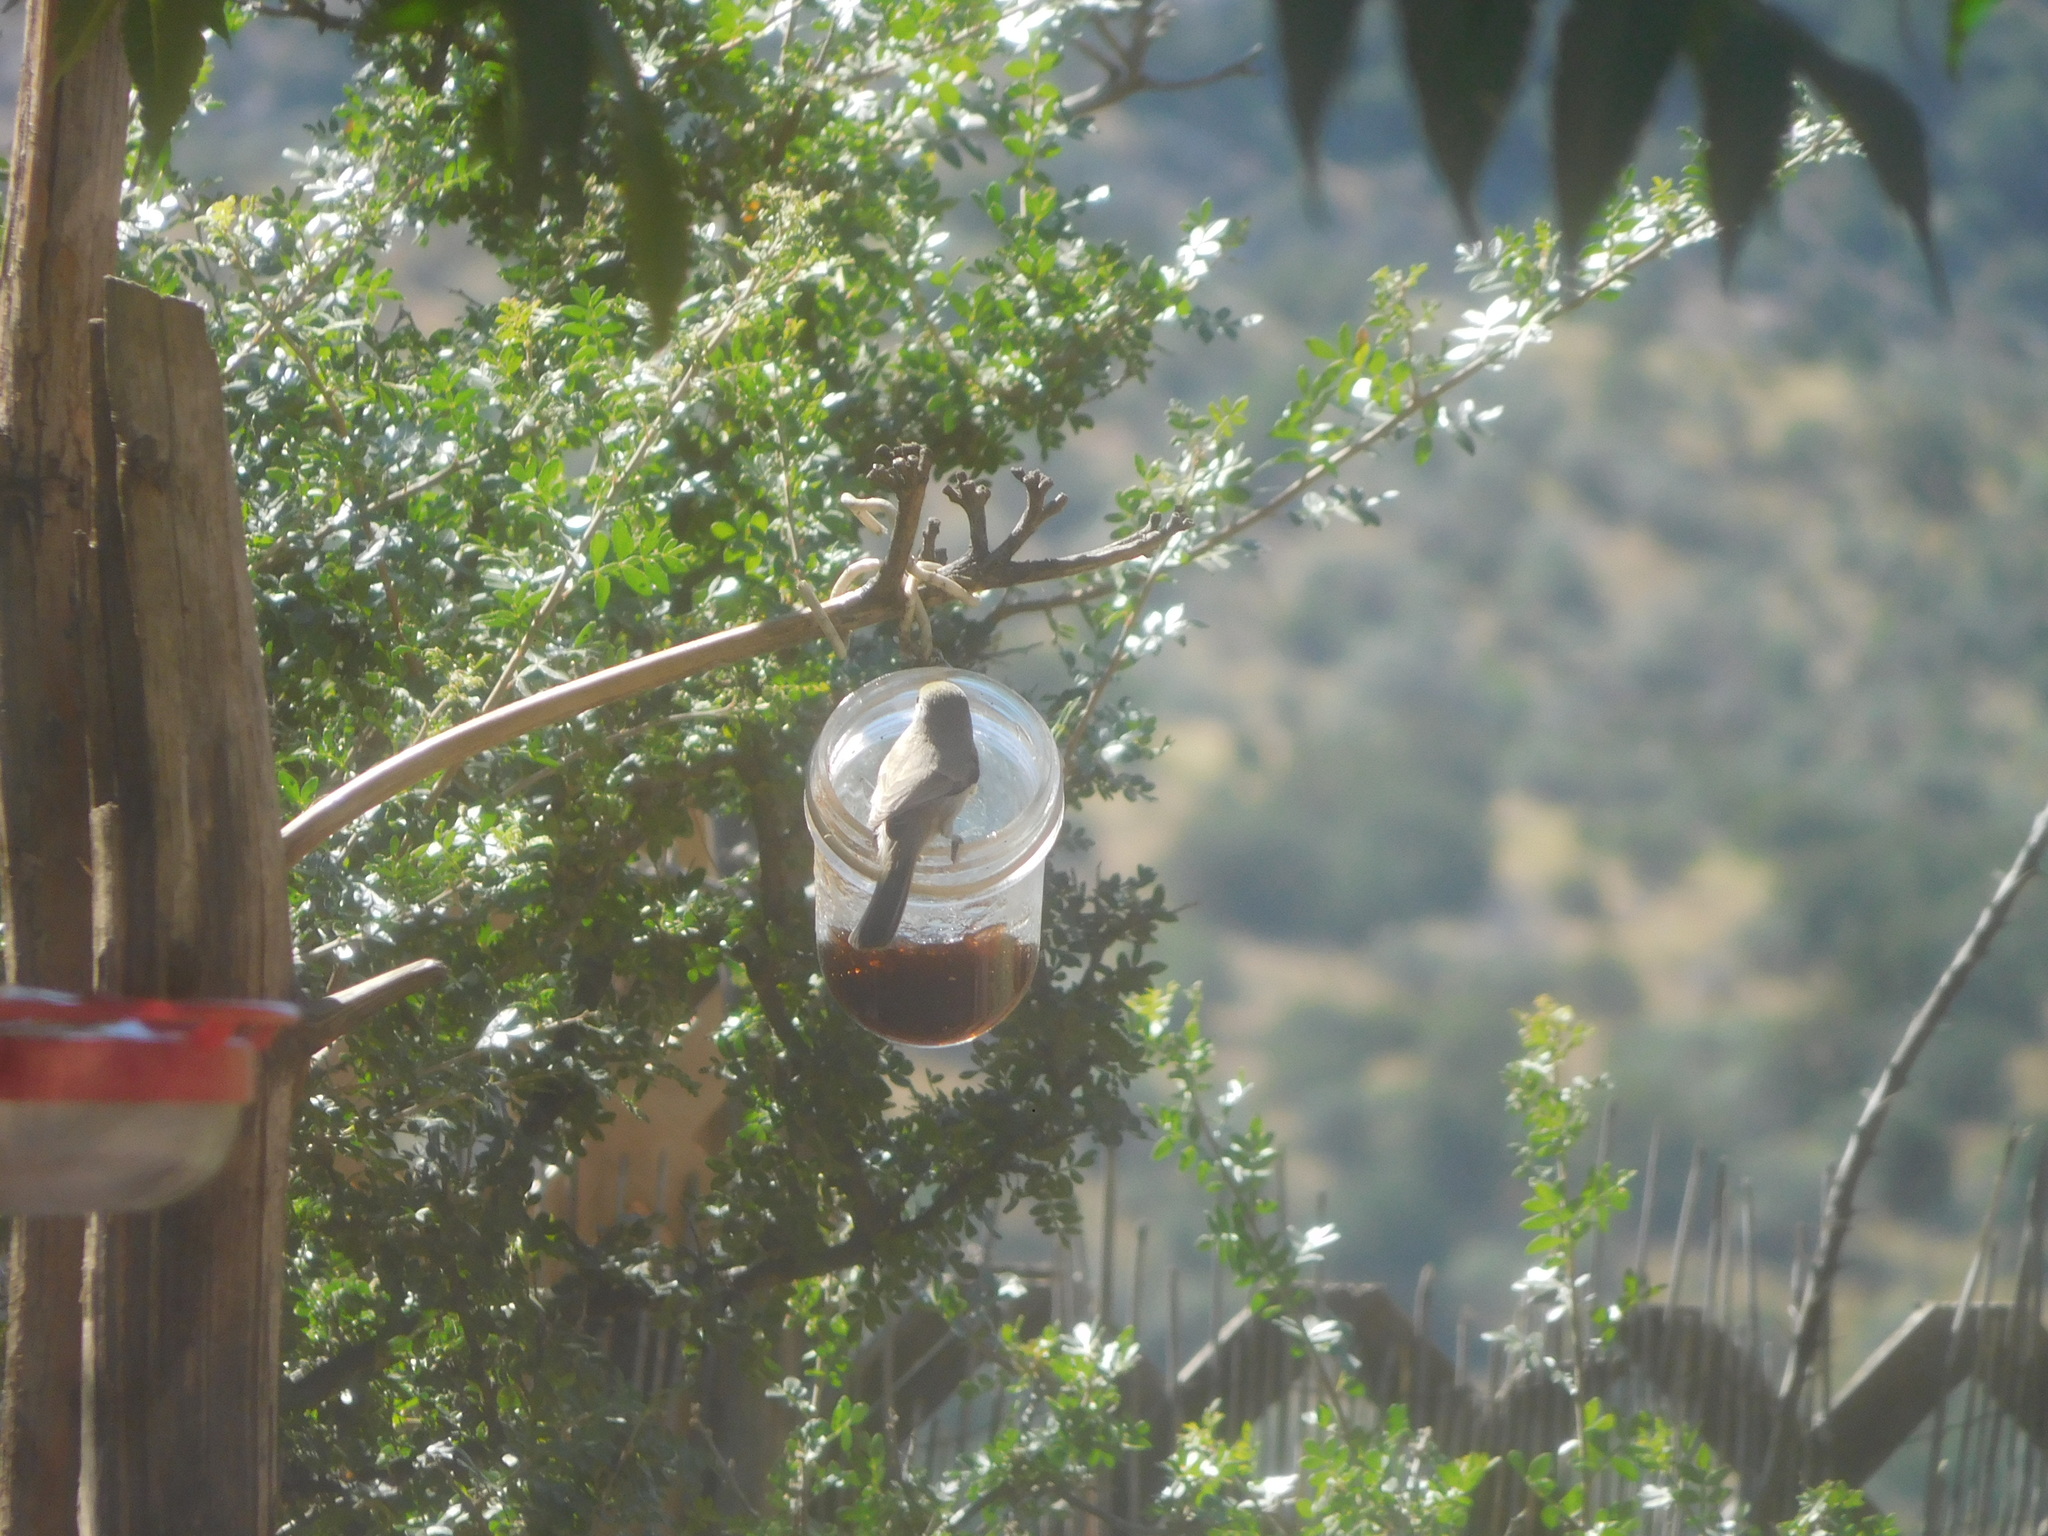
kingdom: Animalia
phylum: Chordata
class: Aves
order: Passeriformes
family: Remizidae
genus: Auriparus
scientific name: Auriparus flaviceps
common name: Verdin
